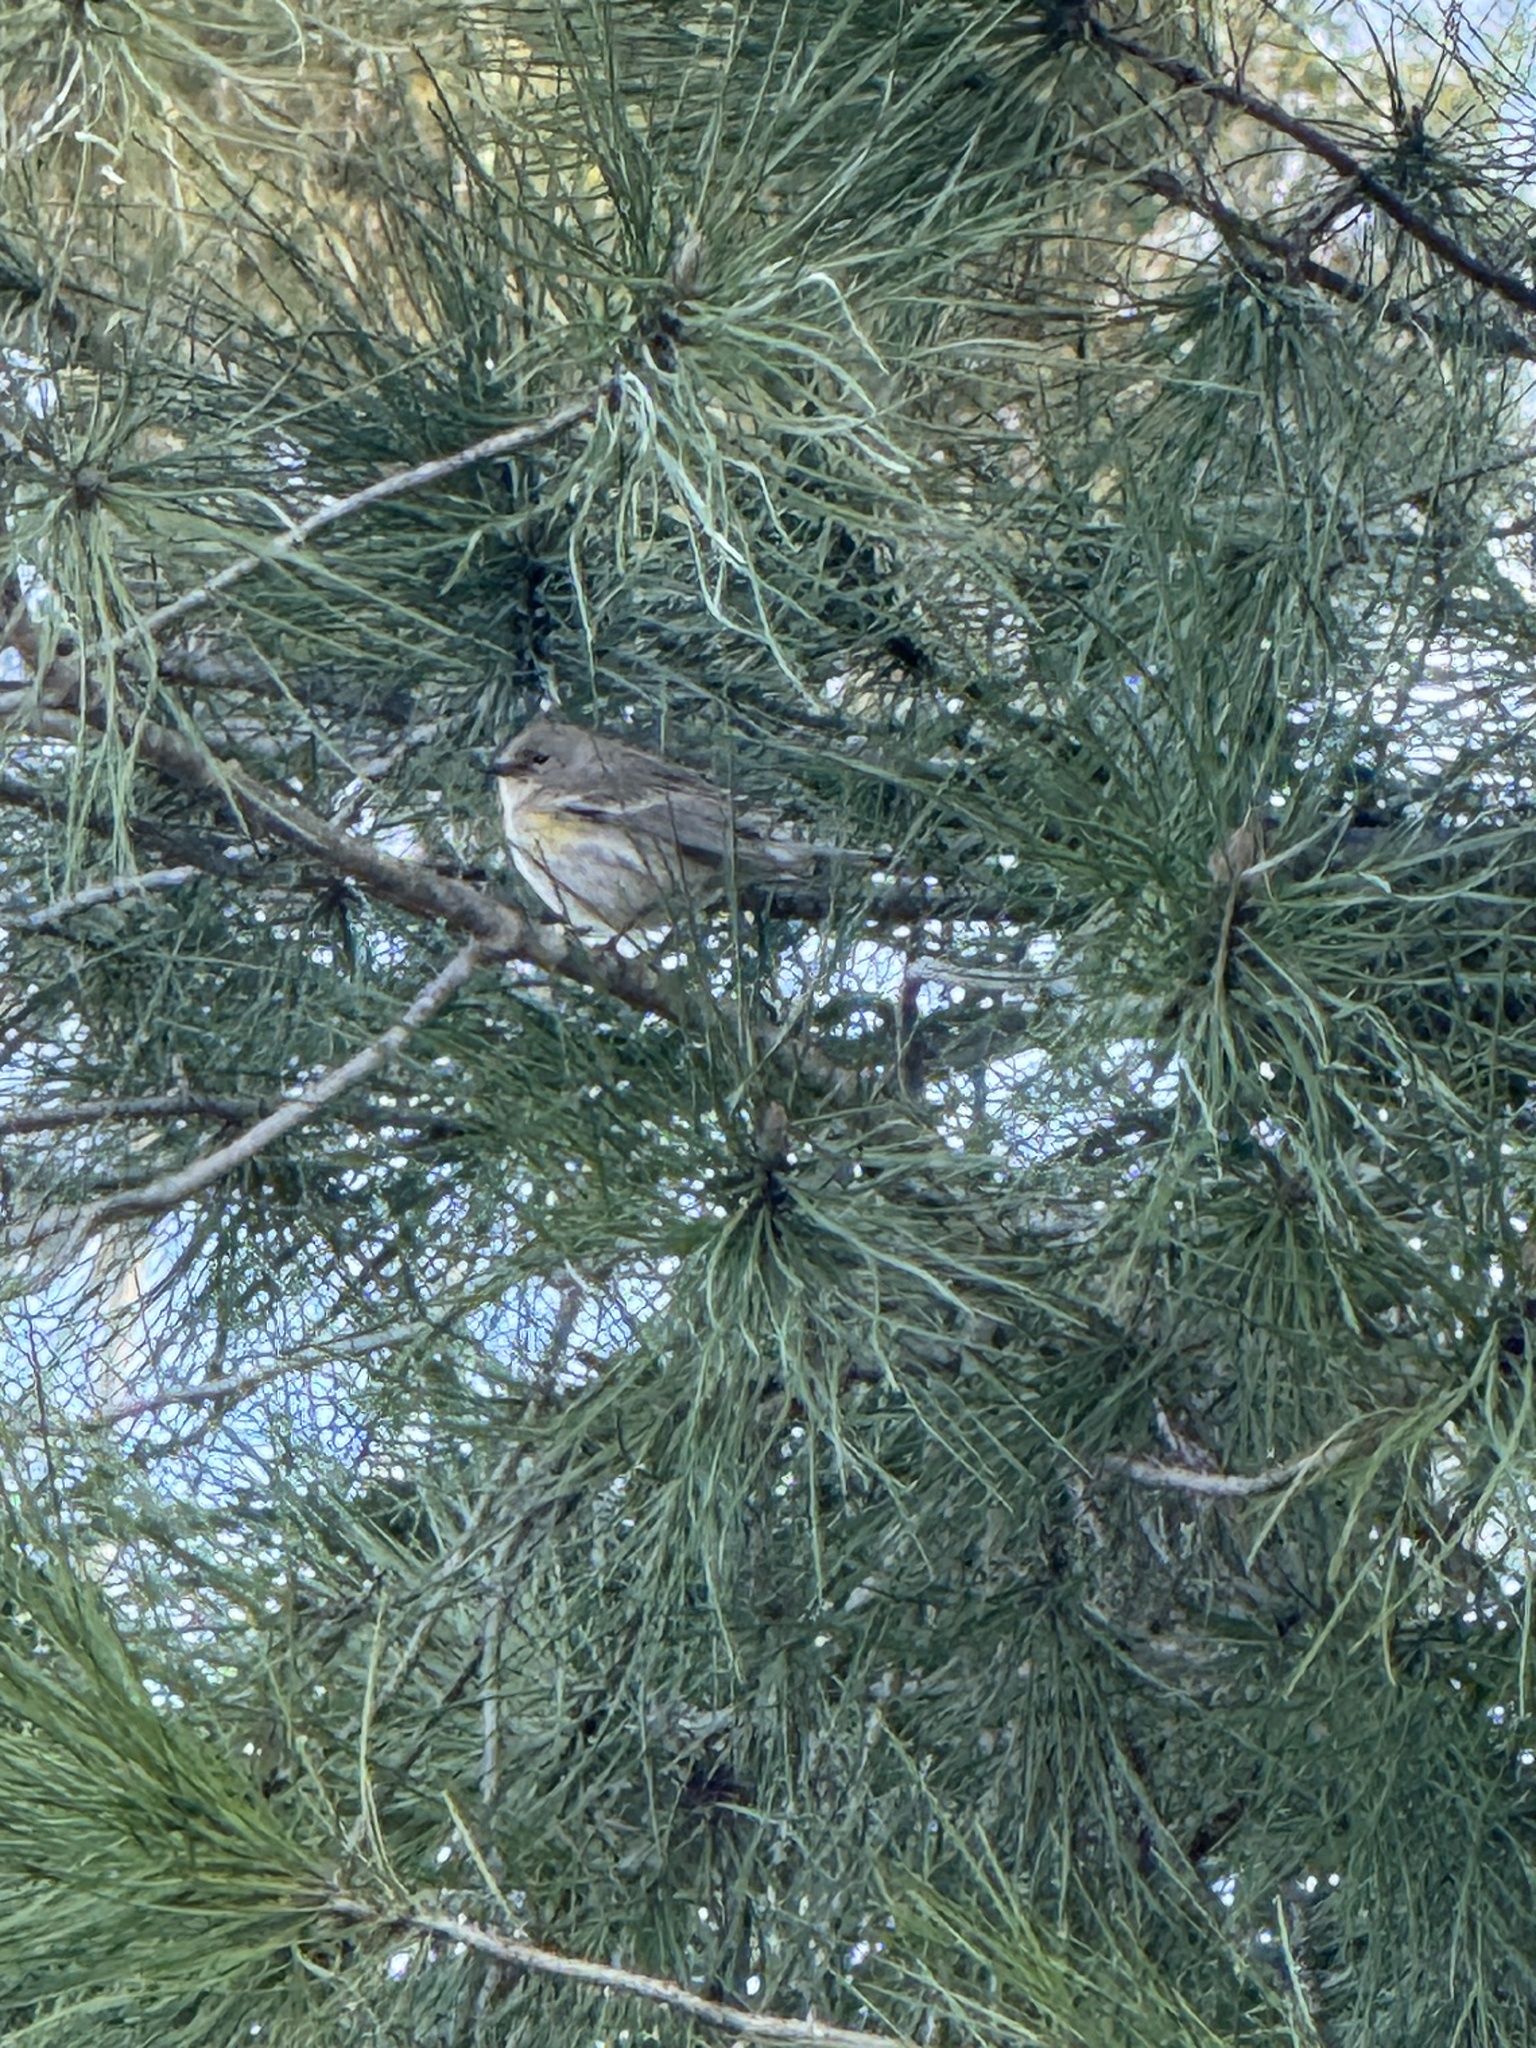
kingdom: Animalia
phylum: Chordata
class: Aves
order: Passeriformes
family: Parulidae
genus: Setophaga
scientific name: Setophaga coronata
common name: Myrtle warbler
